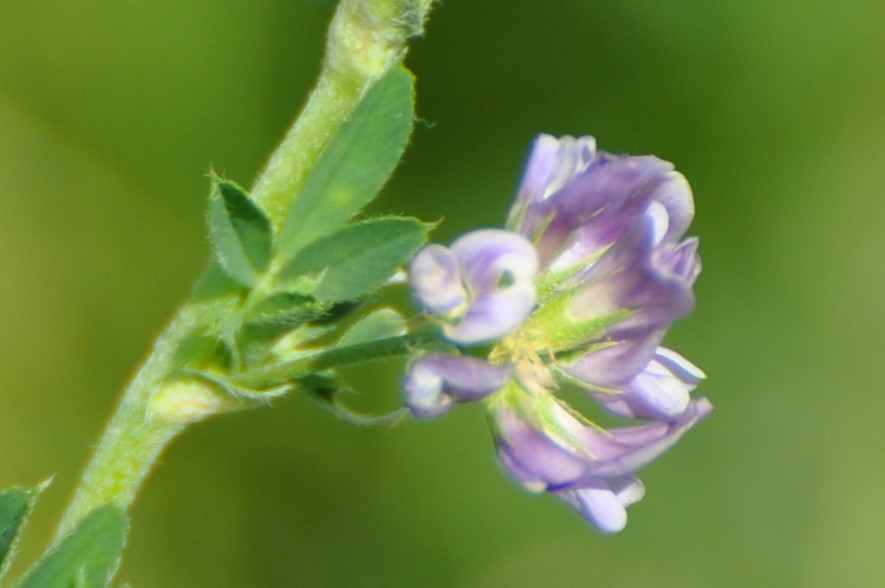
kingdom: Plantae
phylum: Tracheophyta
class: Magnoliopsida
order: Fabales
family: Fabaceae
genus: Medicago
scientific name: Medicago sativa
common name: Alfalfa
